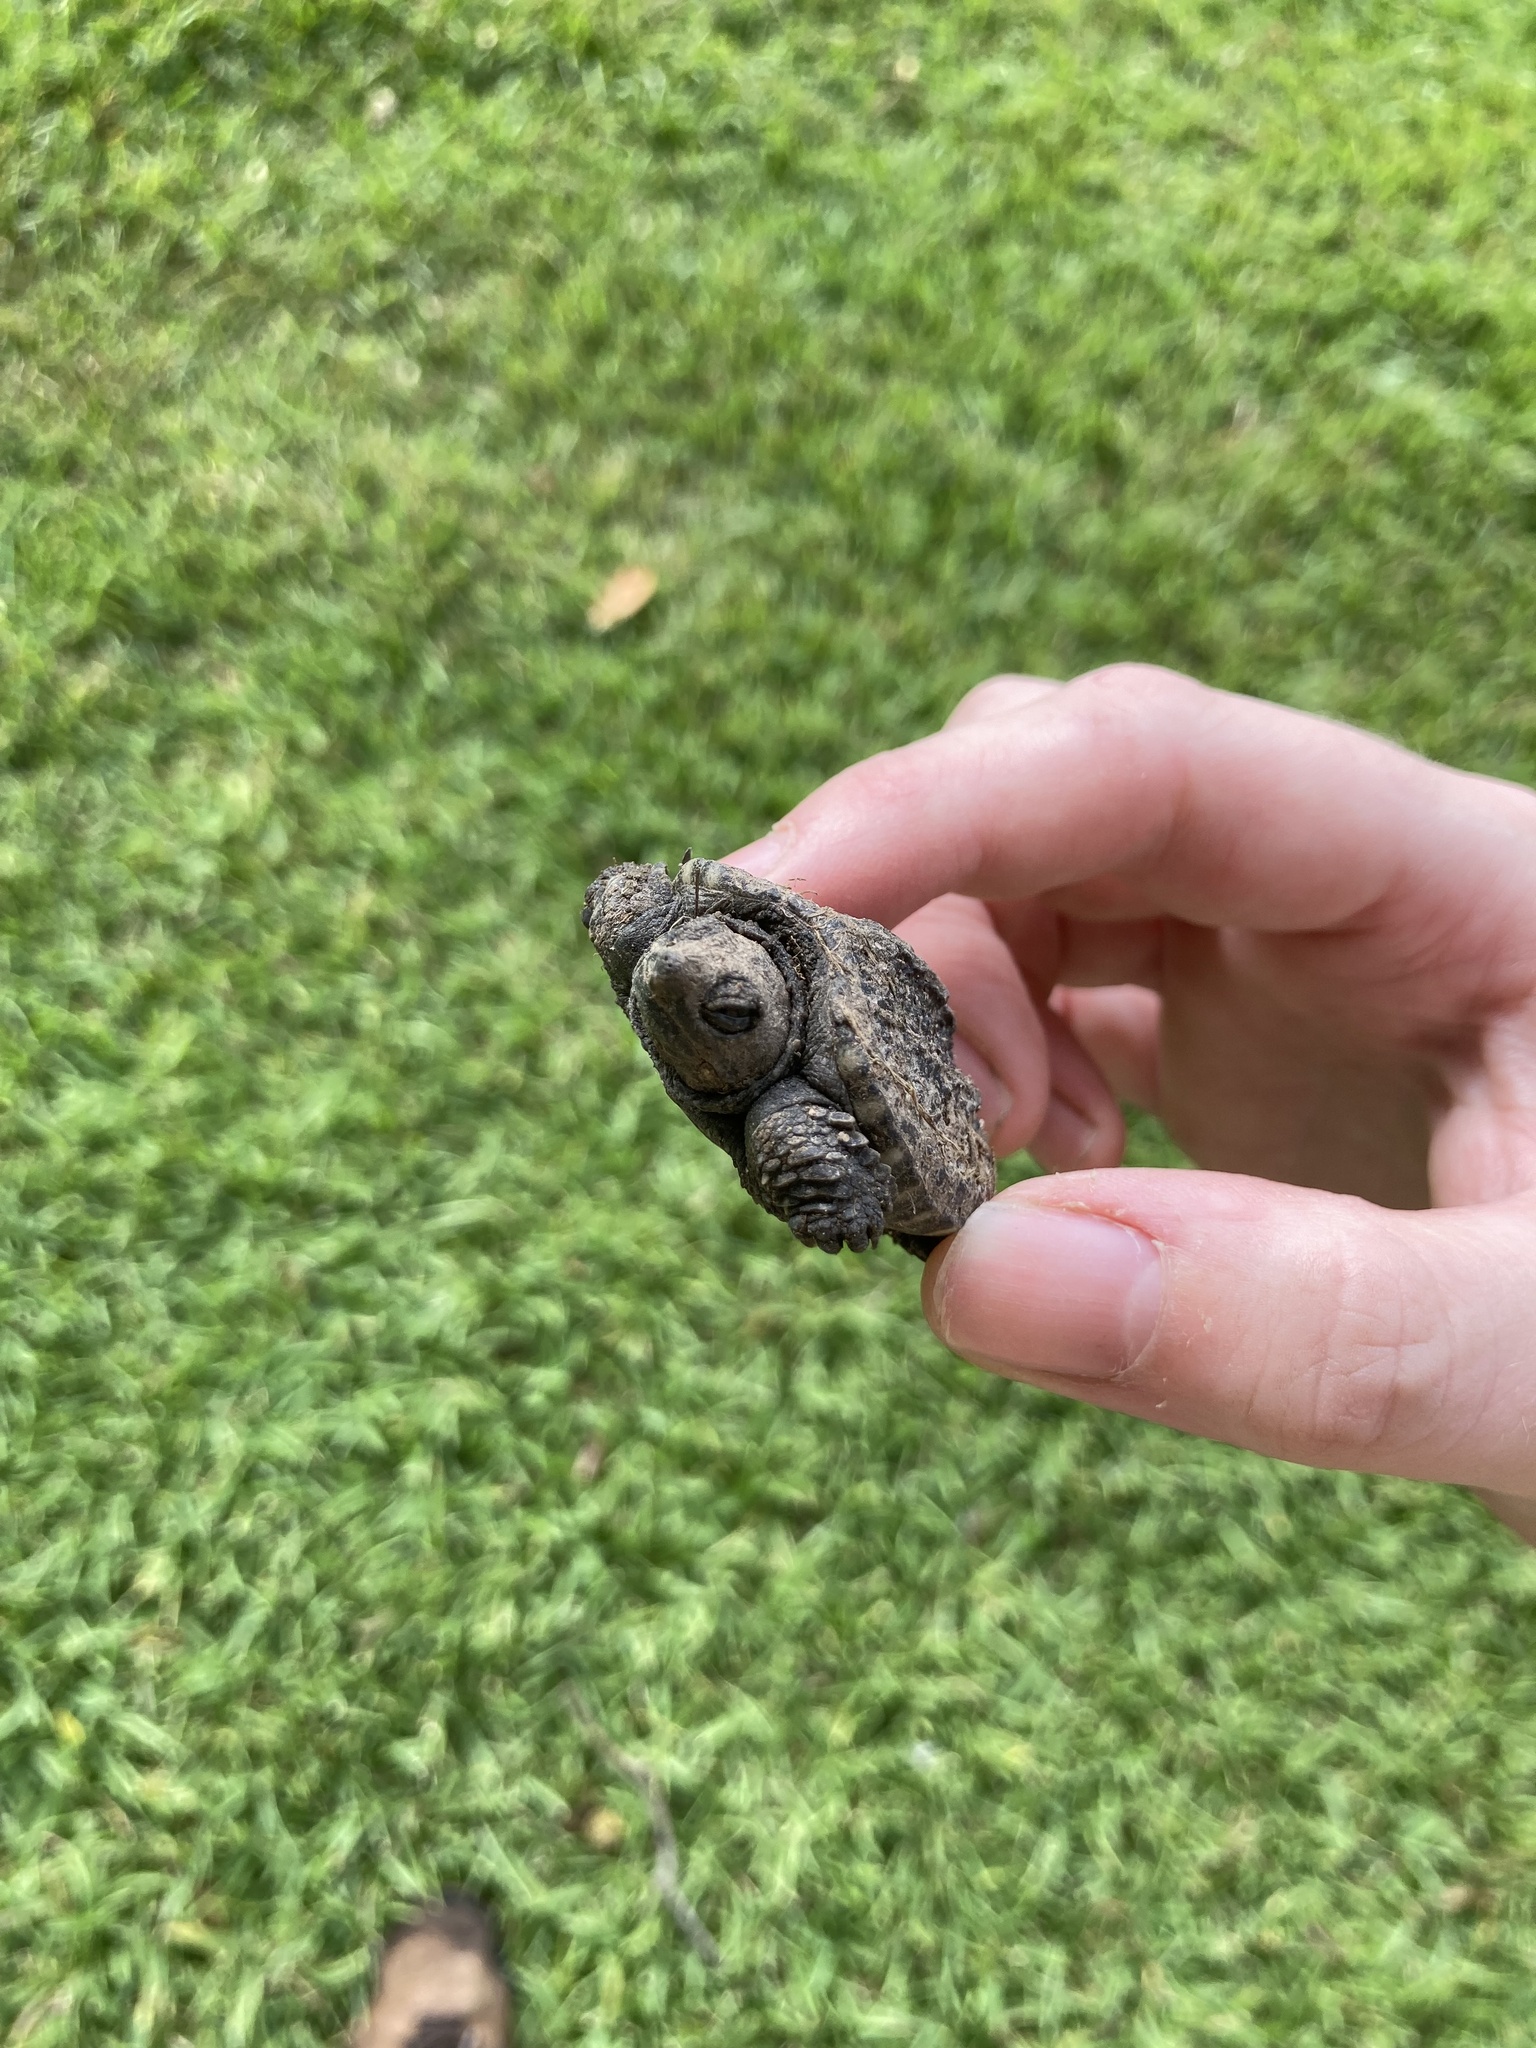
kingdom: Animalia
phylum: Chordata
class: Testudines
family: Chelydridae
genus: Chelydra
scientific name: Chelydra serpentina
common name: Common snapping turtle
